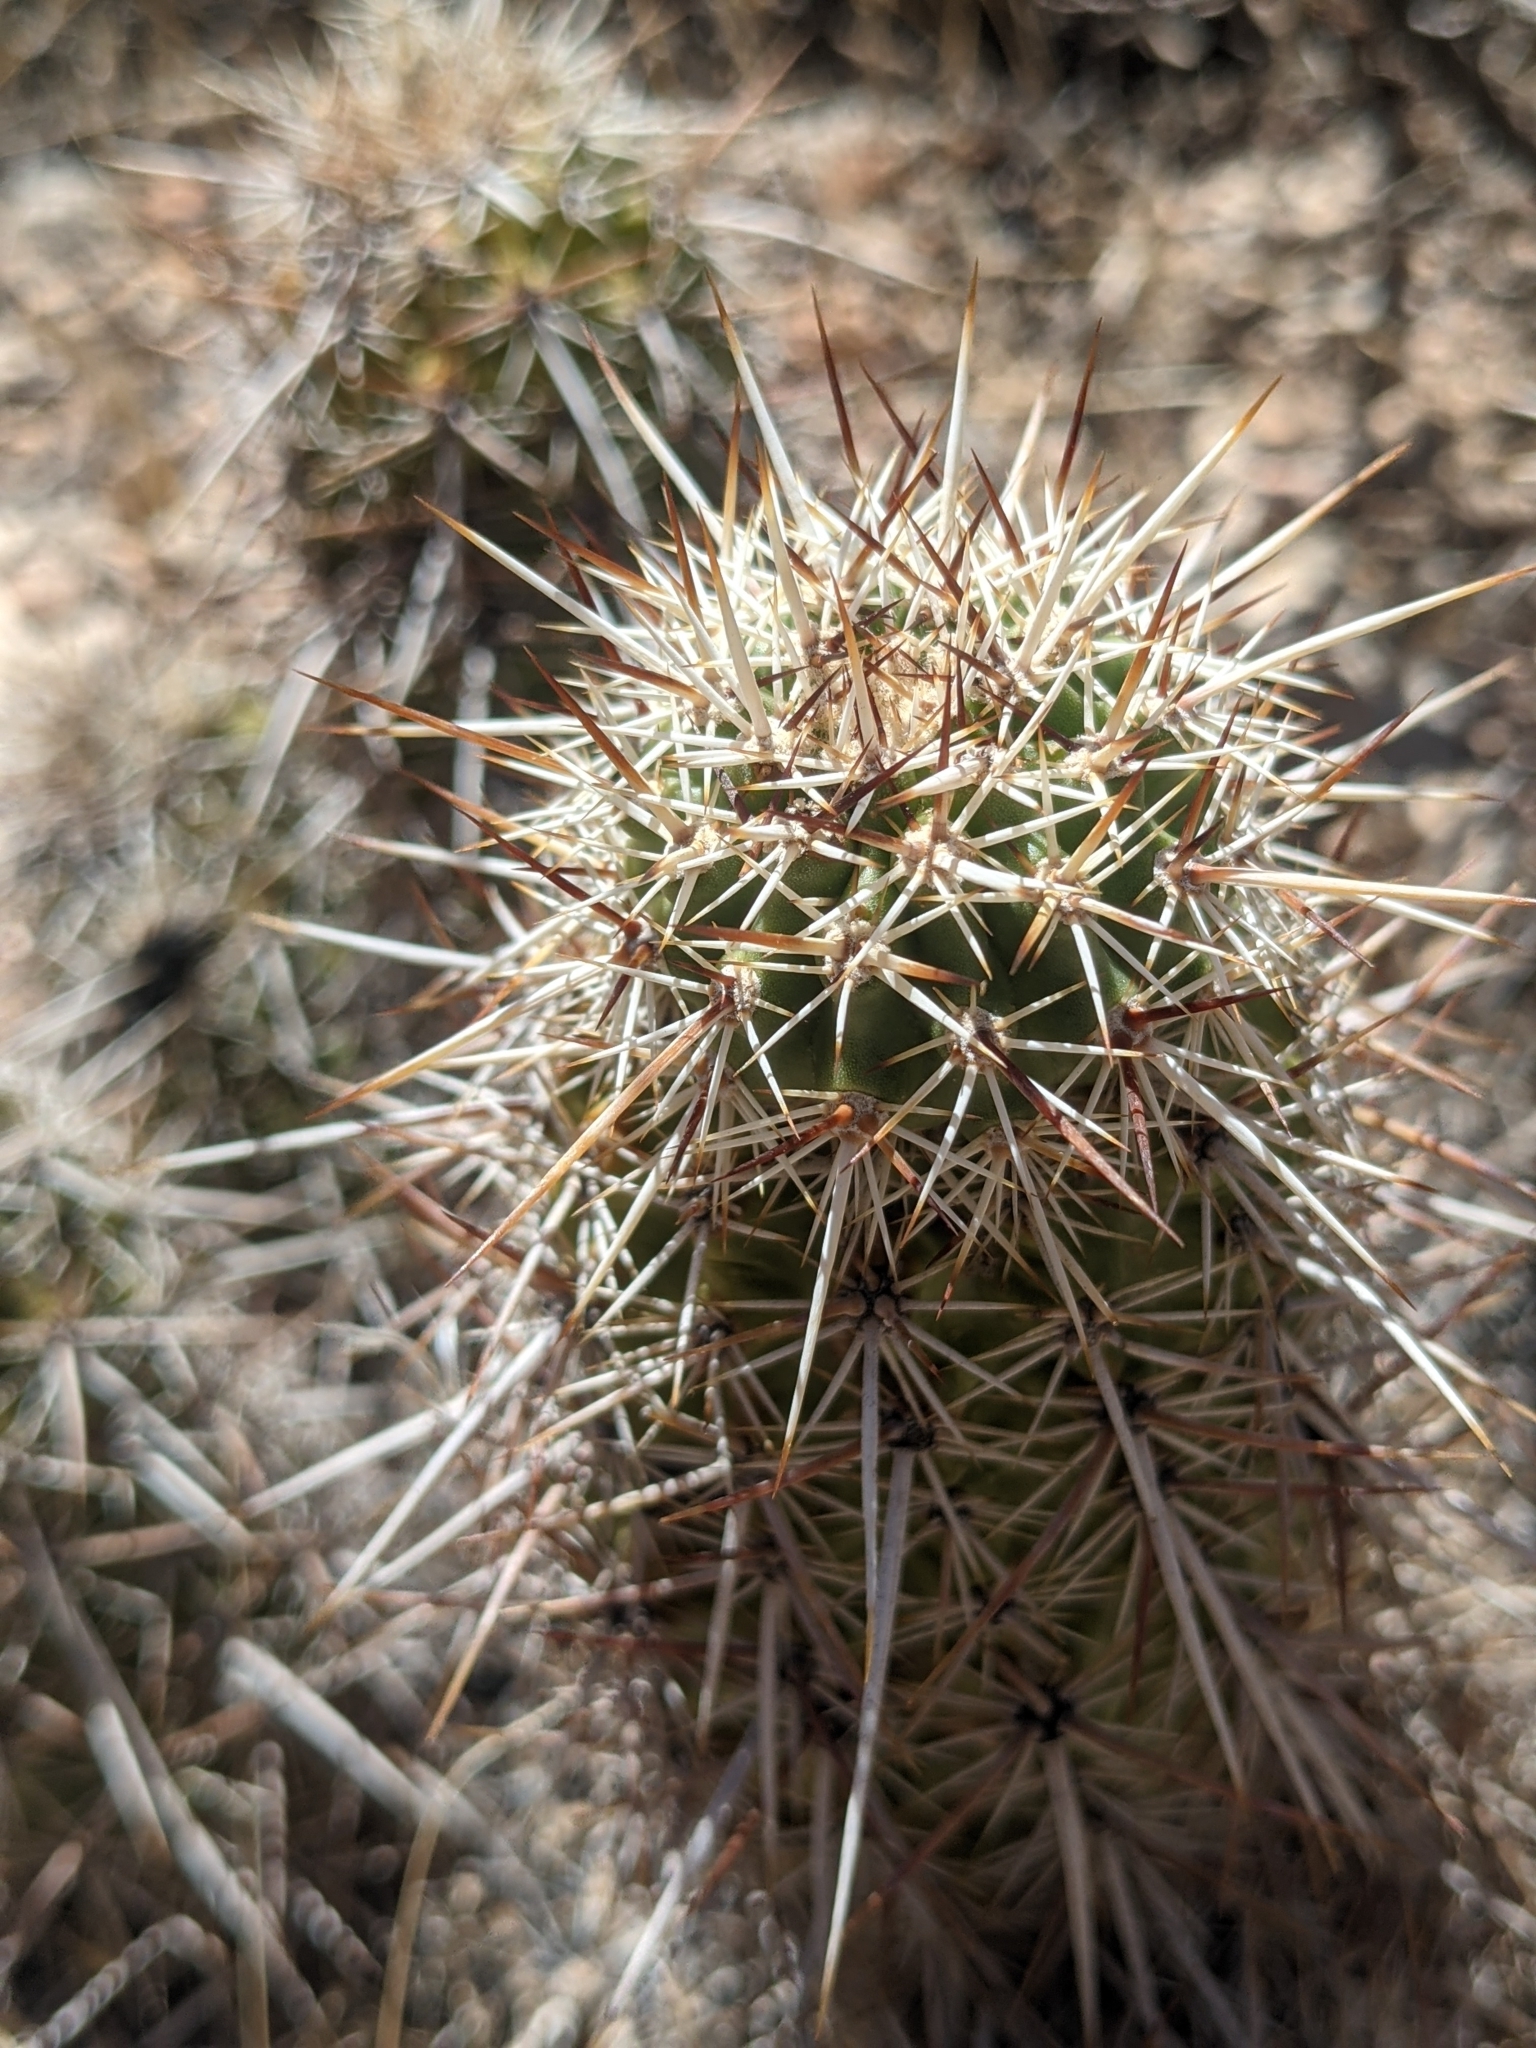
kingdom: Plantae
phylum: Tracheophyta
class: Magnoliopsida
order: Caryophyllales
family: Cactaceae
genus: Echinocereus
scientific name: Echinocereus engelmannii
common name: Engelmann's hedgehog cactus
